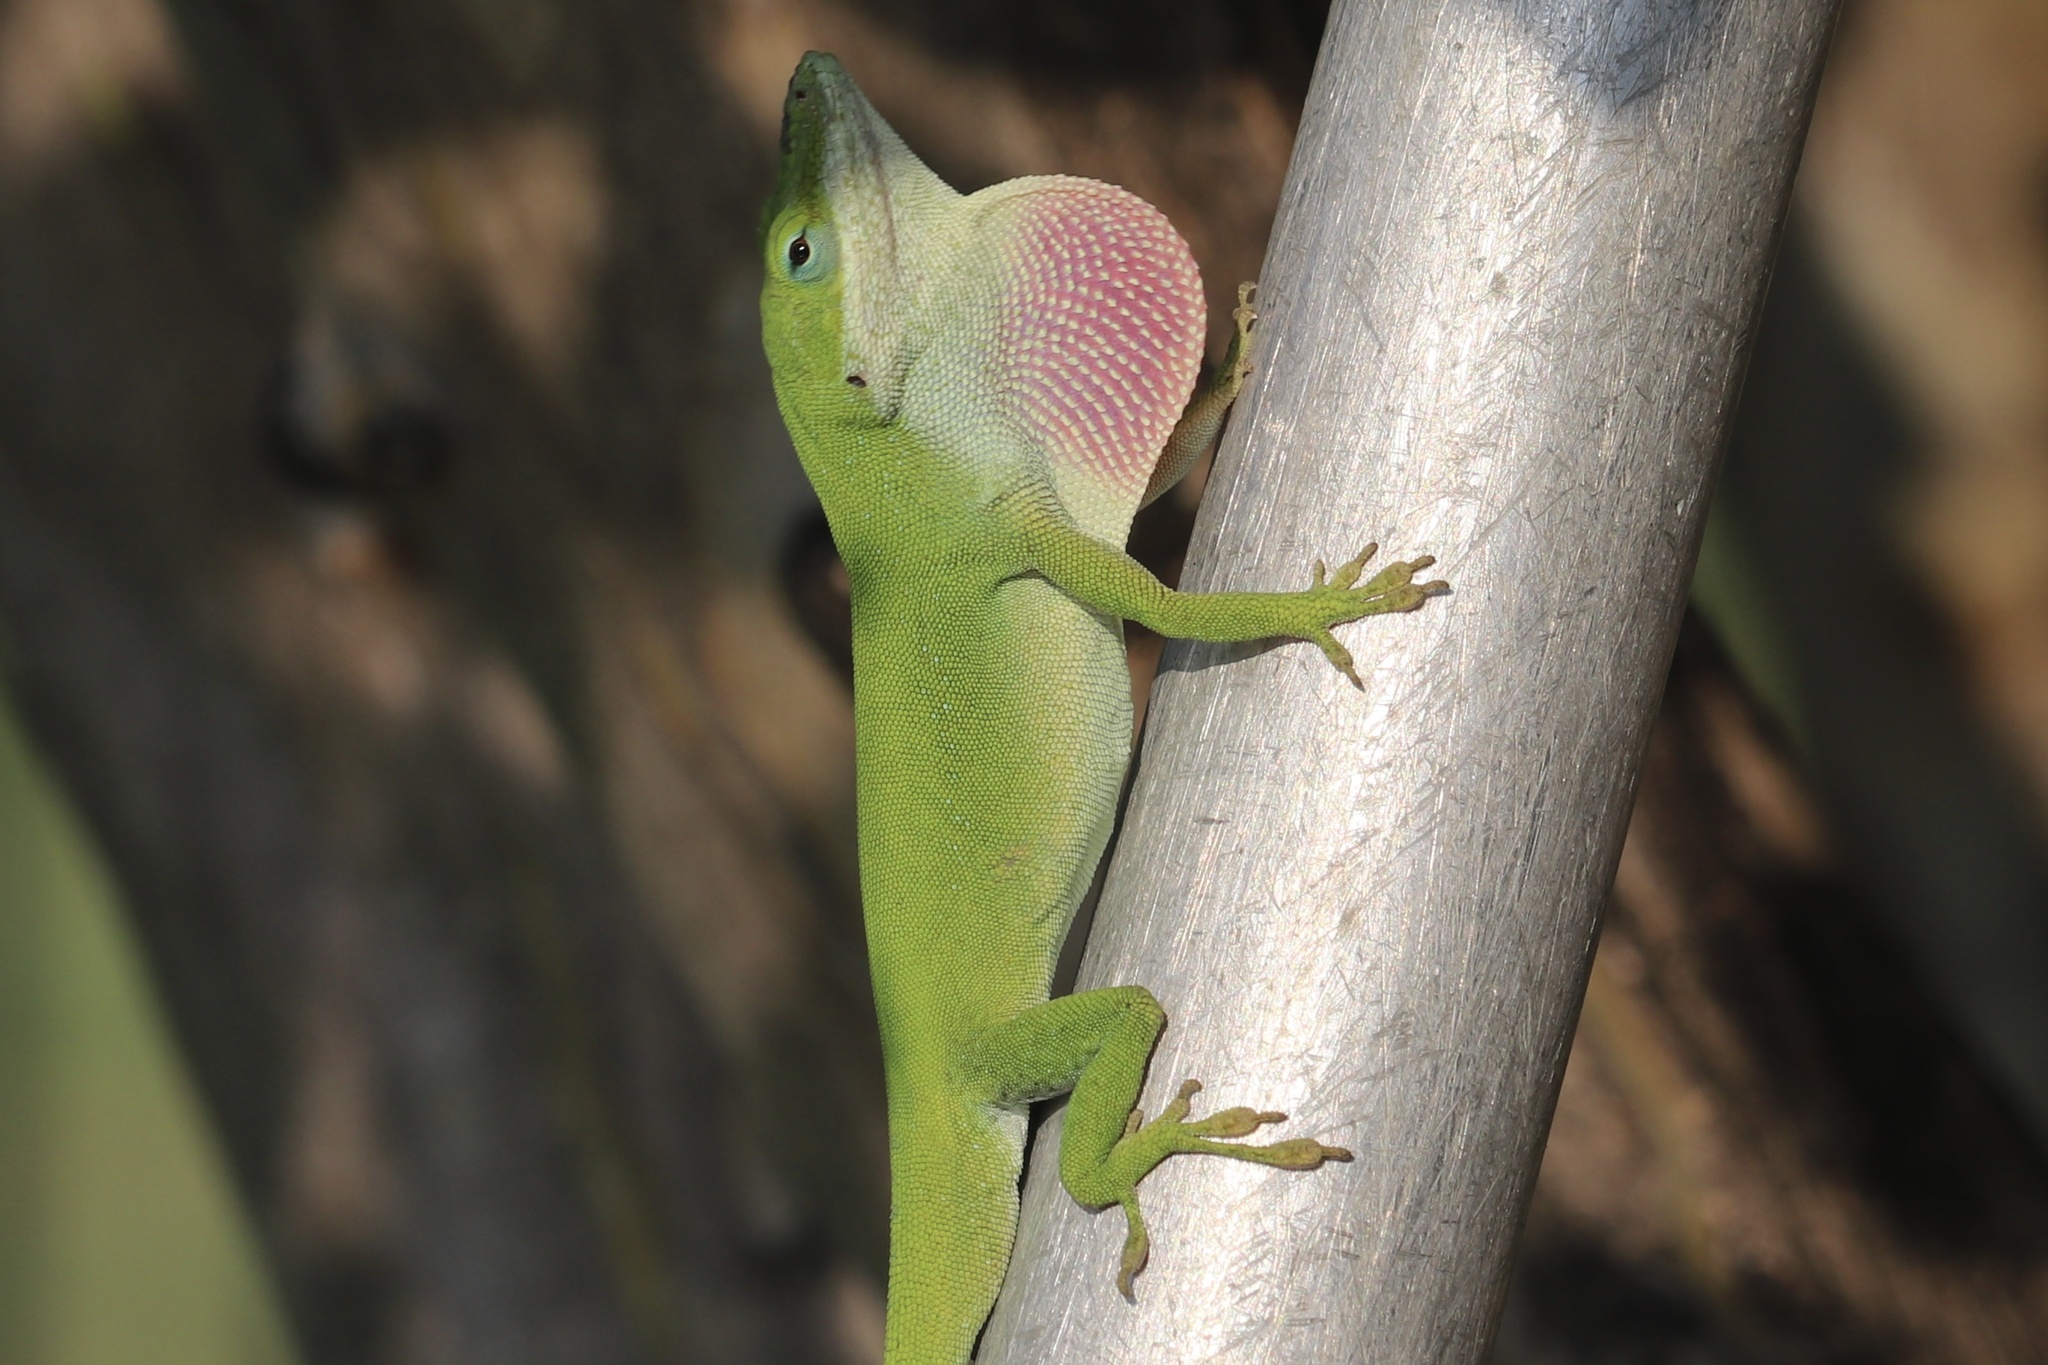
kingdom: Animalia
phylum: Chordata
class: Squamata
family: Dactyloidae
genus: Anolis
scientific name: Anolis carolinensis
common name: Green anole
